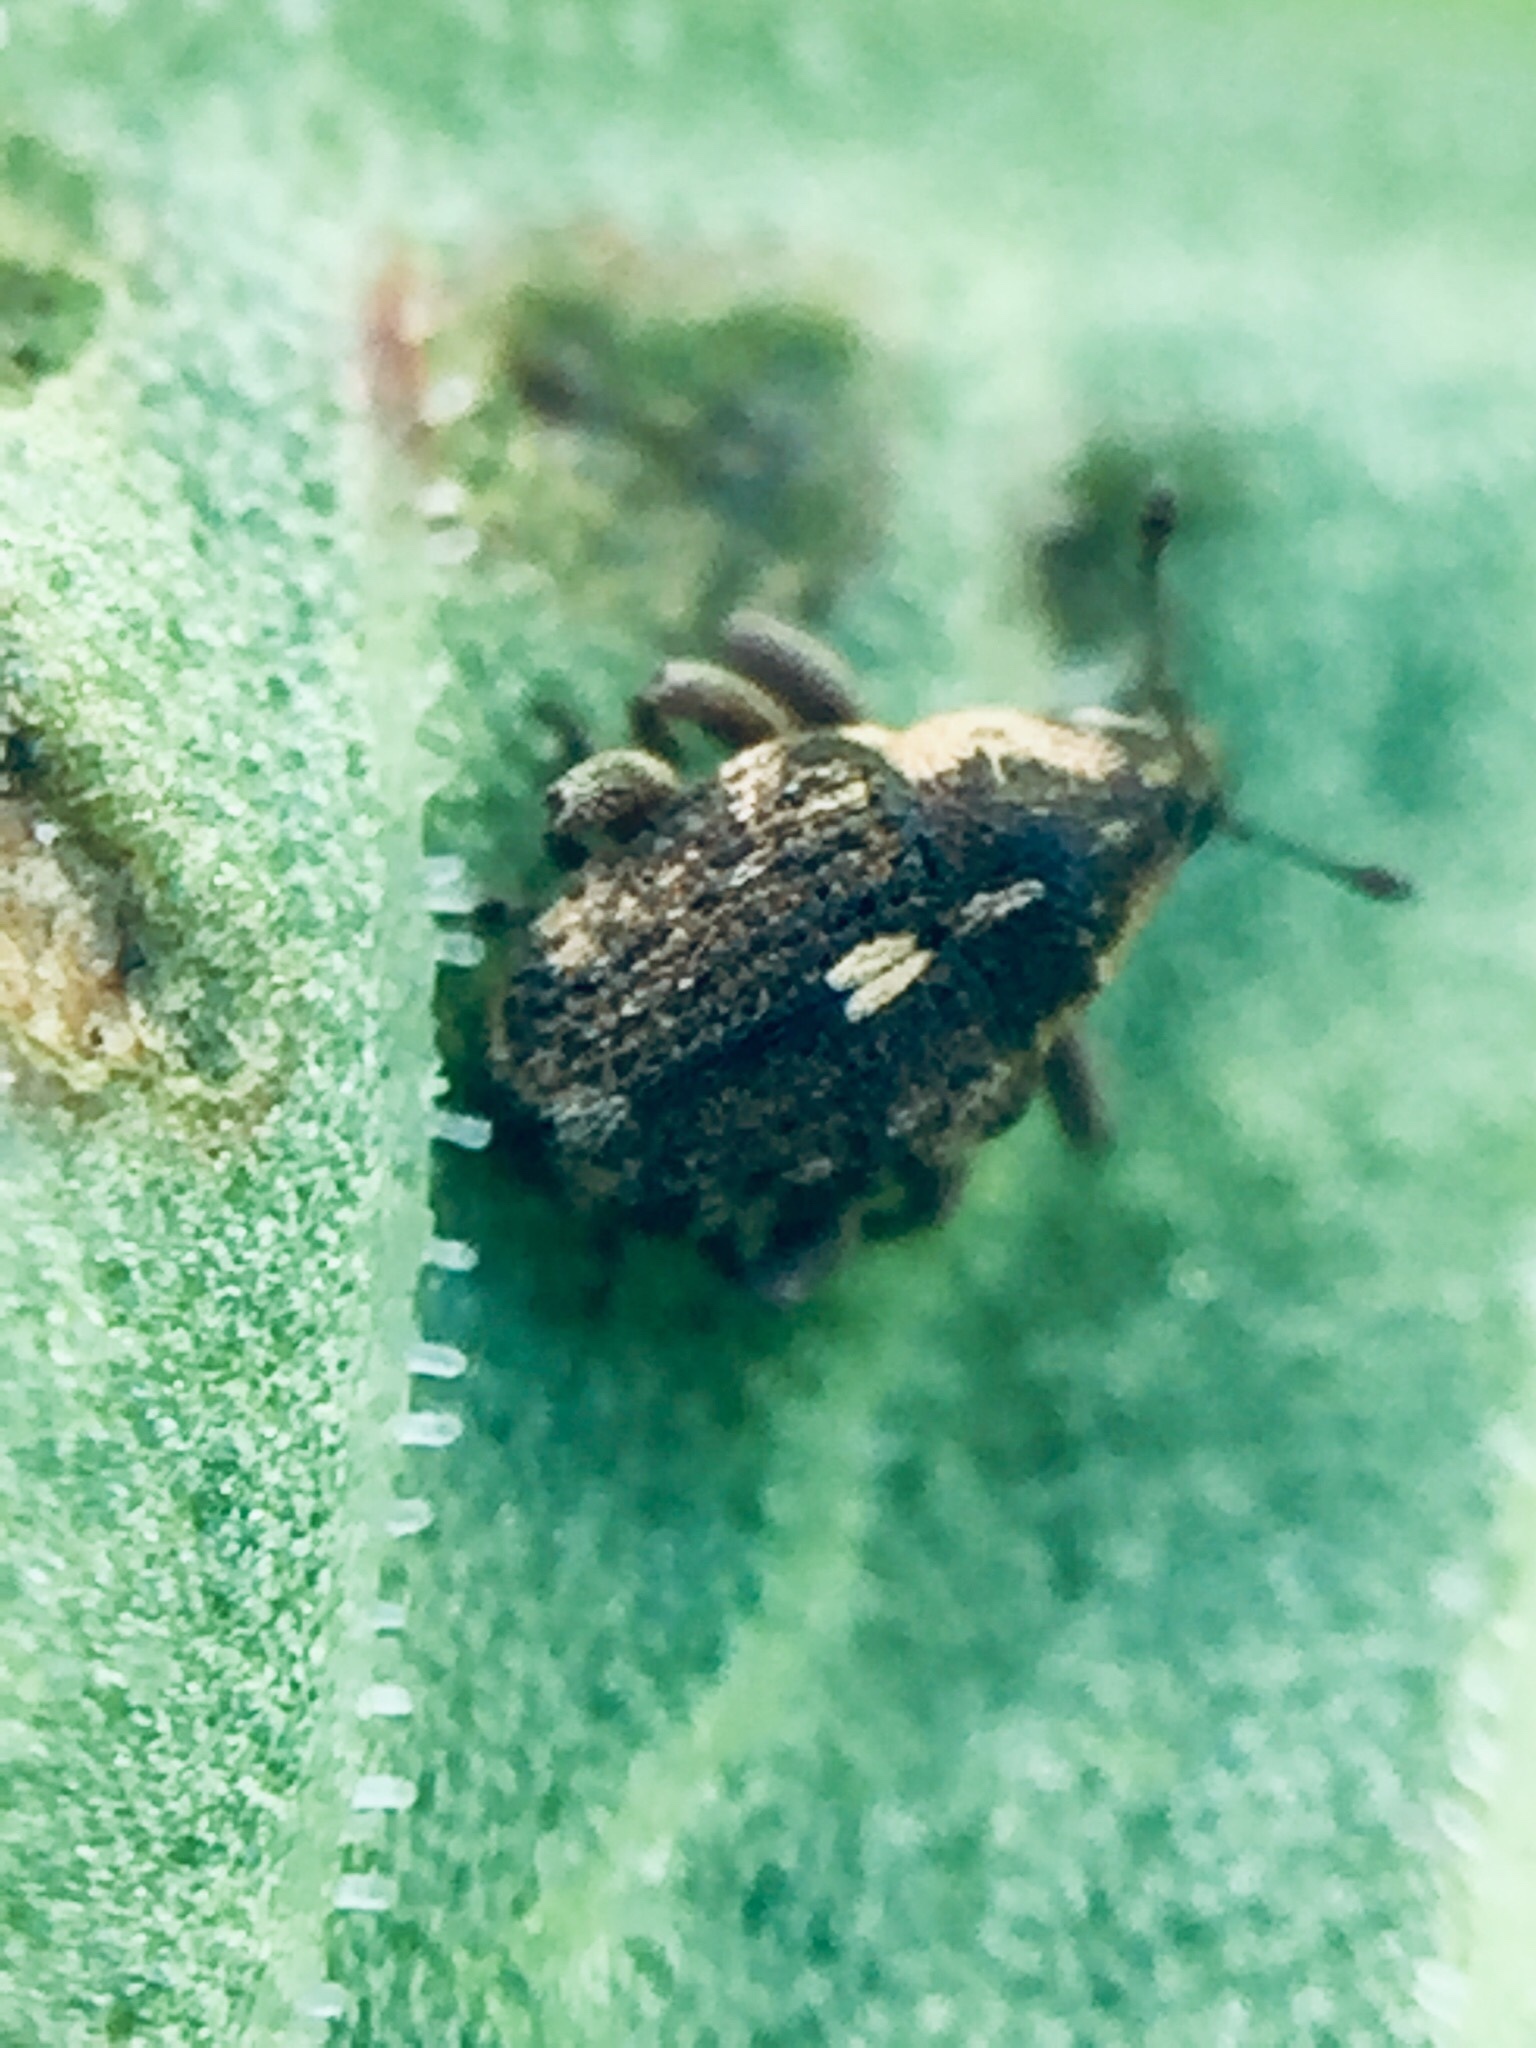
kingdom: Animalia
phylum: Arthropoda
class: Insecta
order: Coleoptera
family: Curculionidae
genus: Rhinoncus
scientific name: Rhinoncus australis
